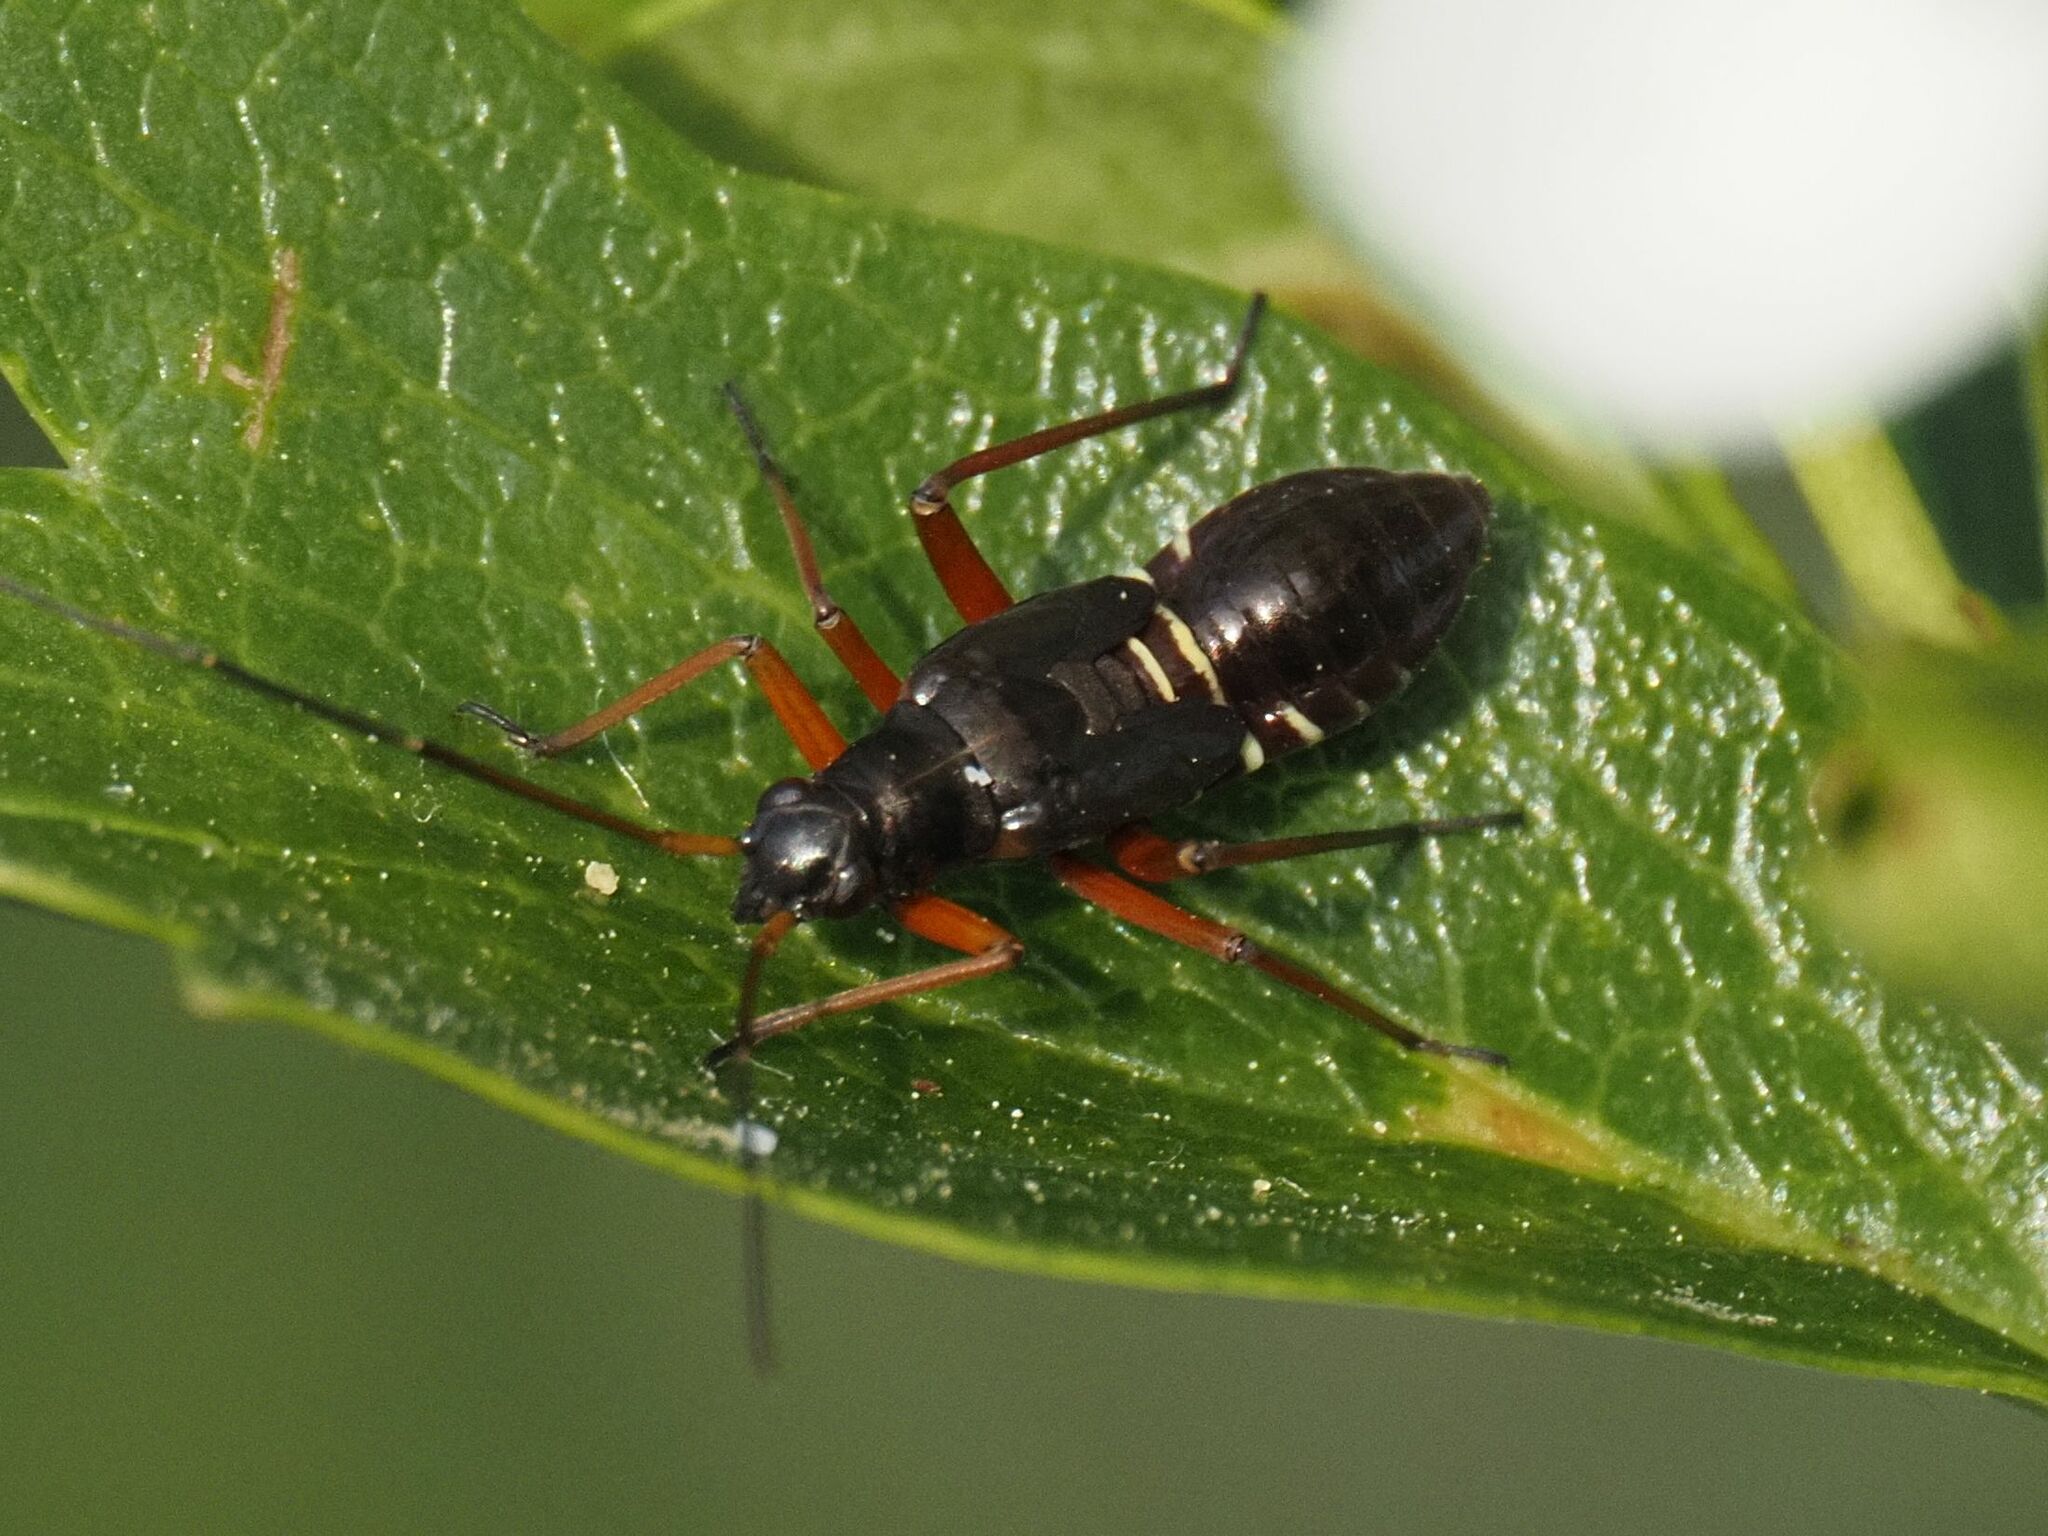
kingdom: Animalia
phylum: Arthropoda
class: Insecta
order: Hemiptera
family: Miridae
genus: Miris
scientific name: Miris striatus
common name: Fine streaked bugkin
